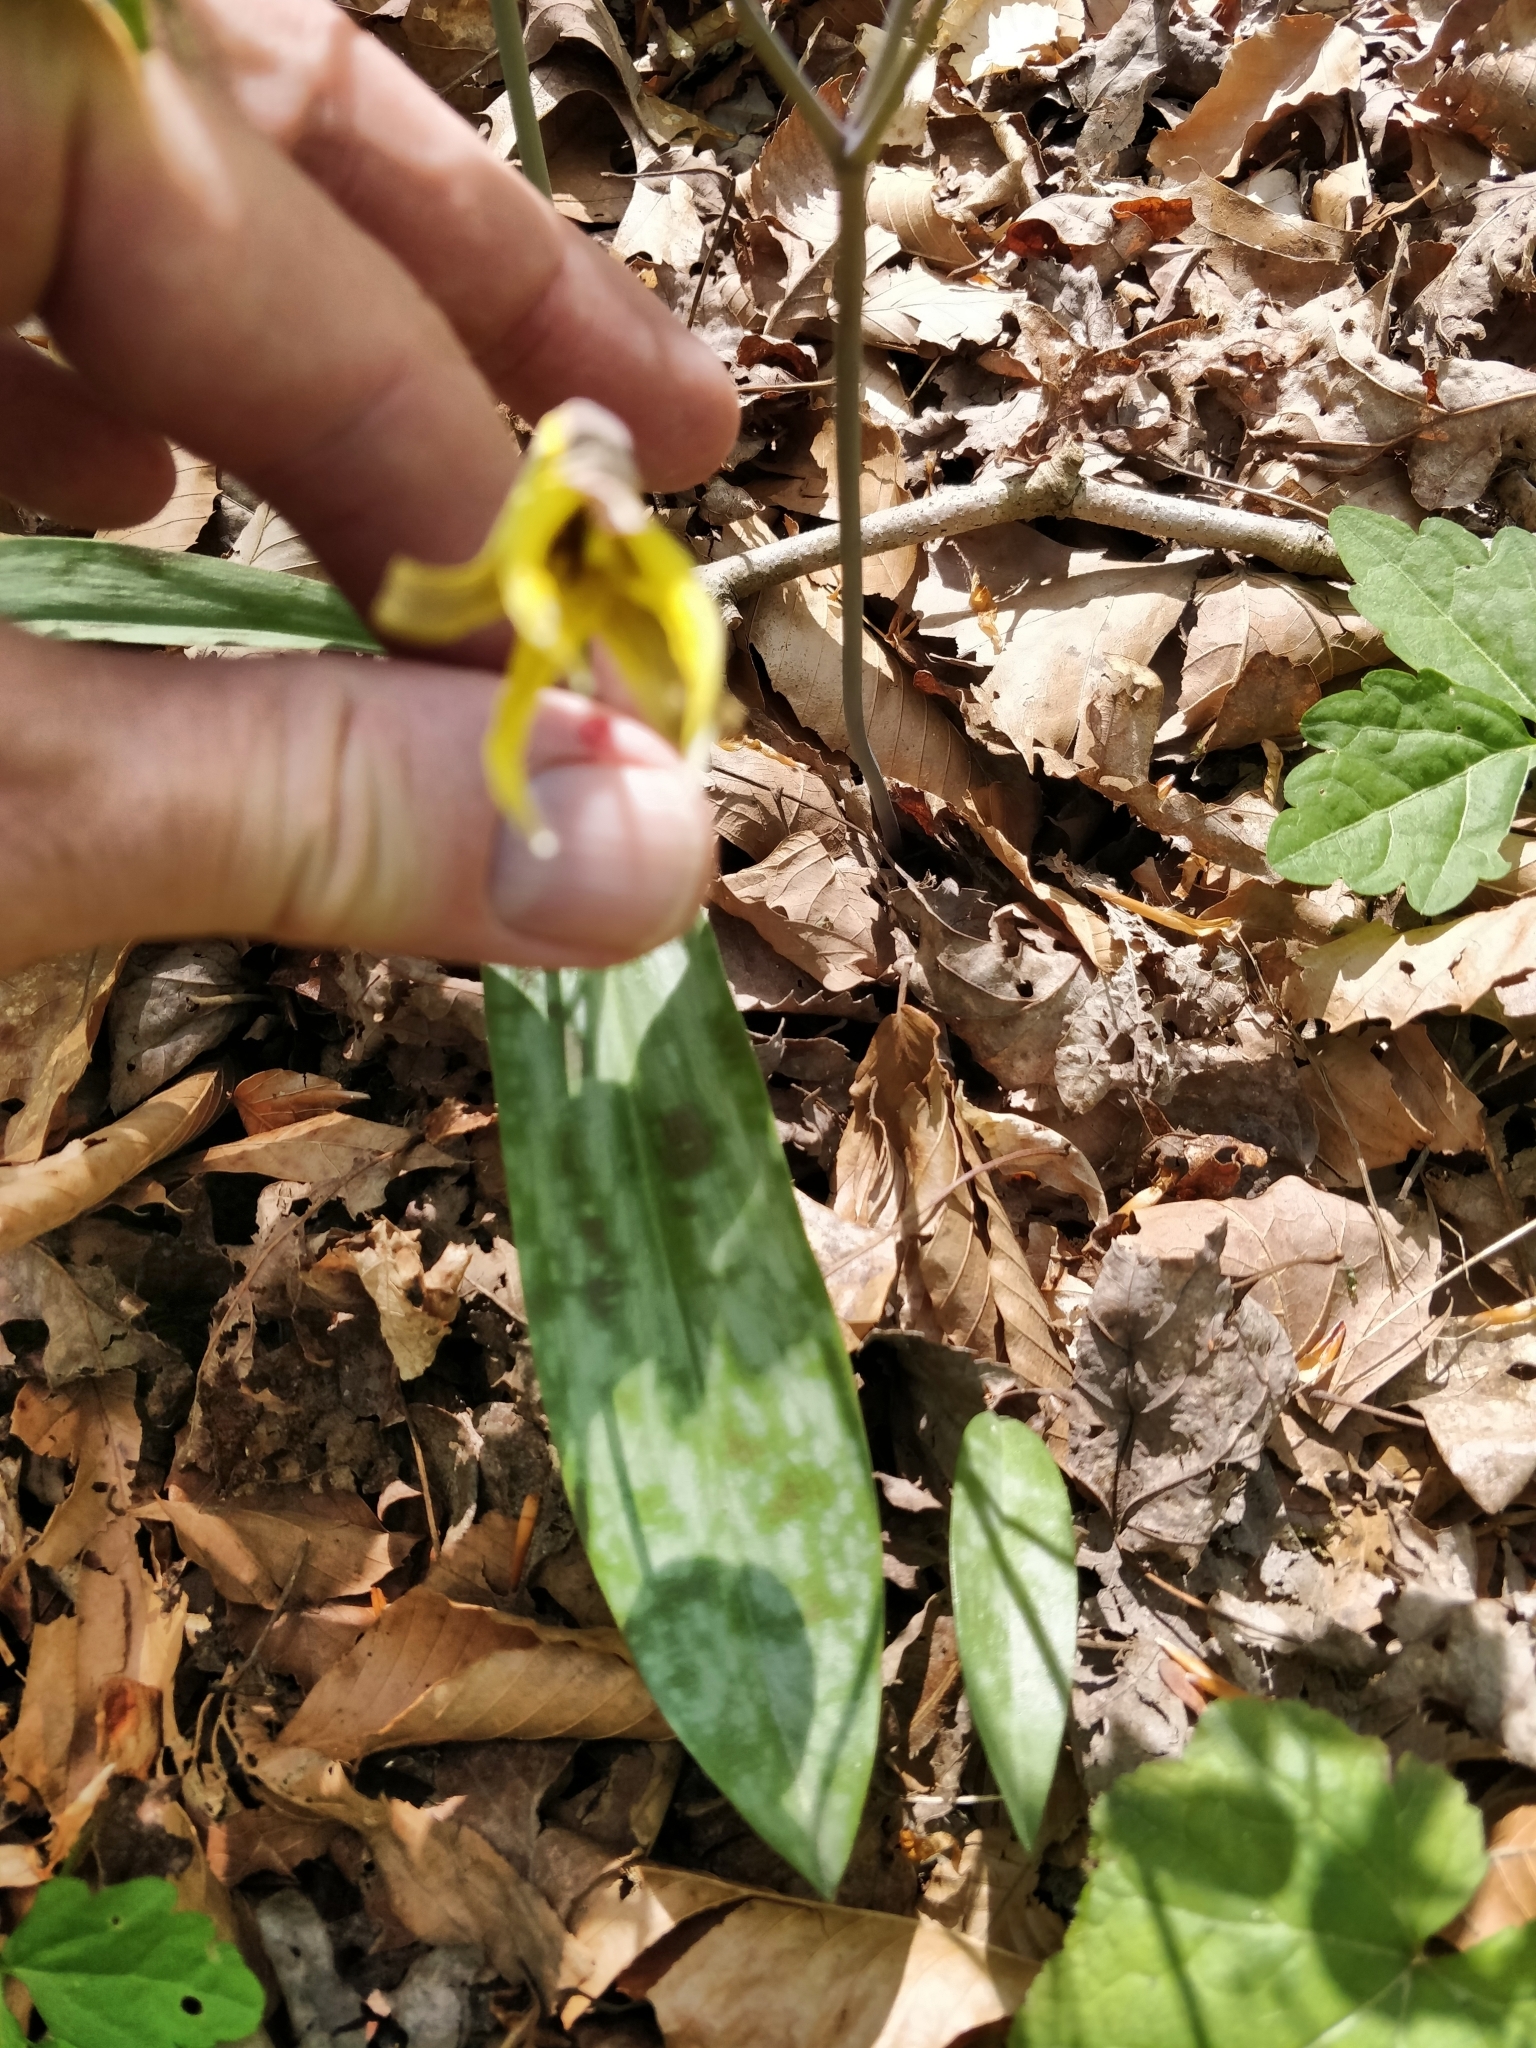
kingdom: Plantae
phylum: Tracheophyta
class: Liliopsida
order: Liliales
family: Liliaceae
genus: Erythronium
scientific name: Erythronium americanum
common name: Yellow adder's-tongue
